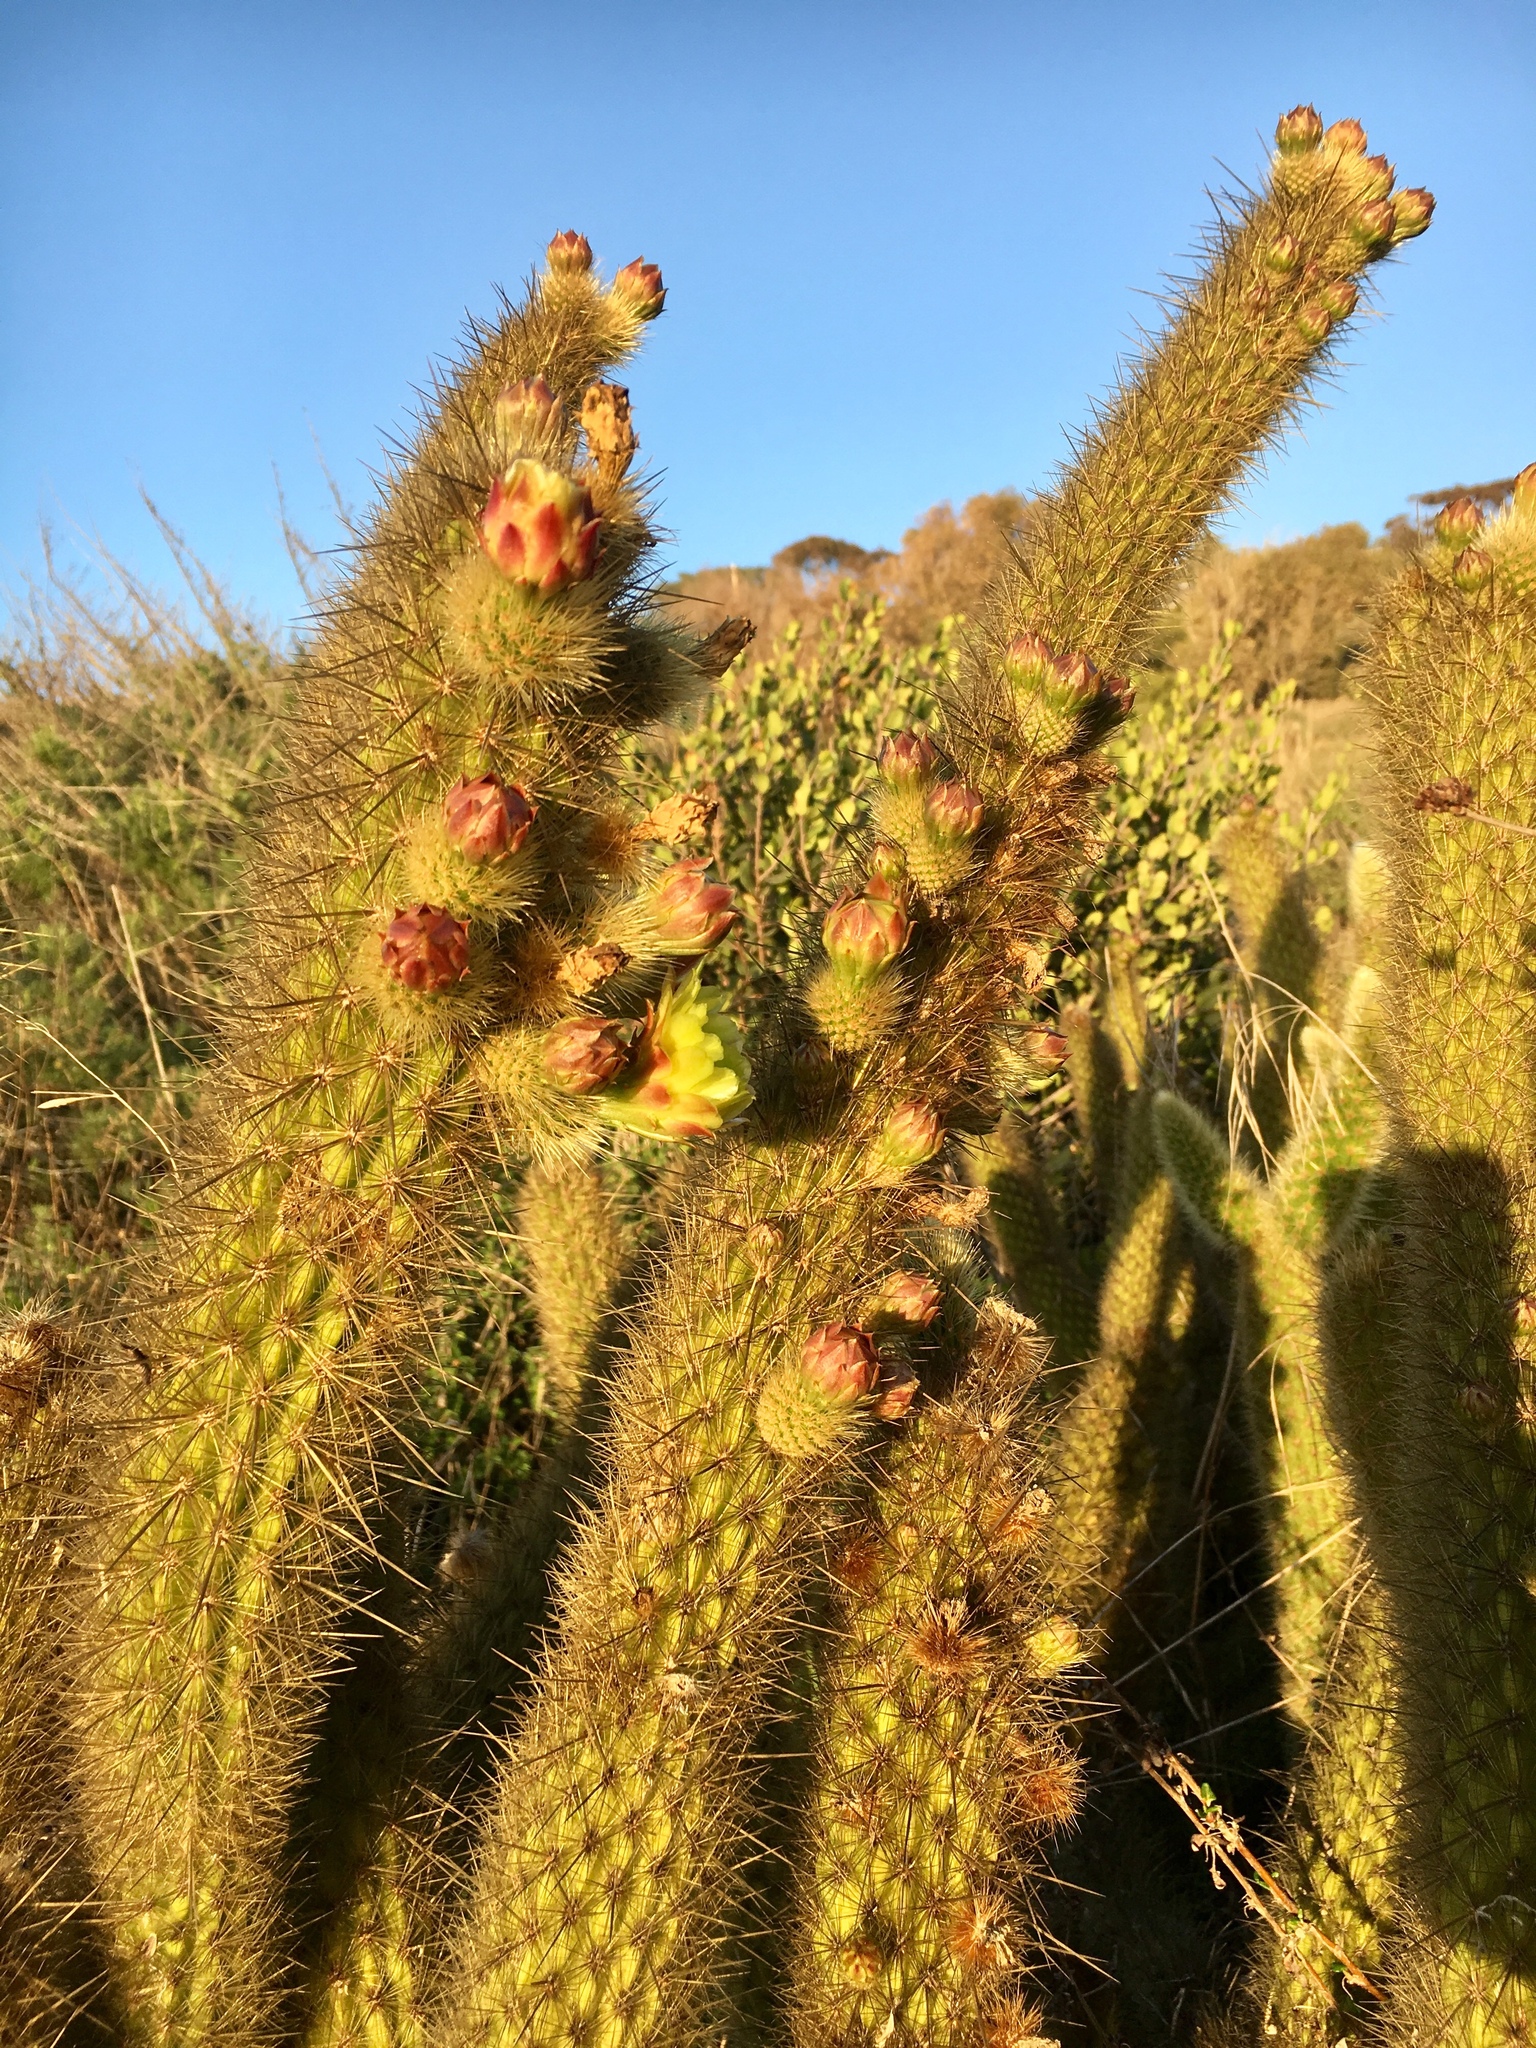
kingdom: Plantae
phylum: Tracheophyta
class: Magnoliopsida
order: Caryophyllales
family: Cactaceae
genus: Bergerocactus
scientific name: Bergerocactus emoryi
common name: Golden snakecactus
